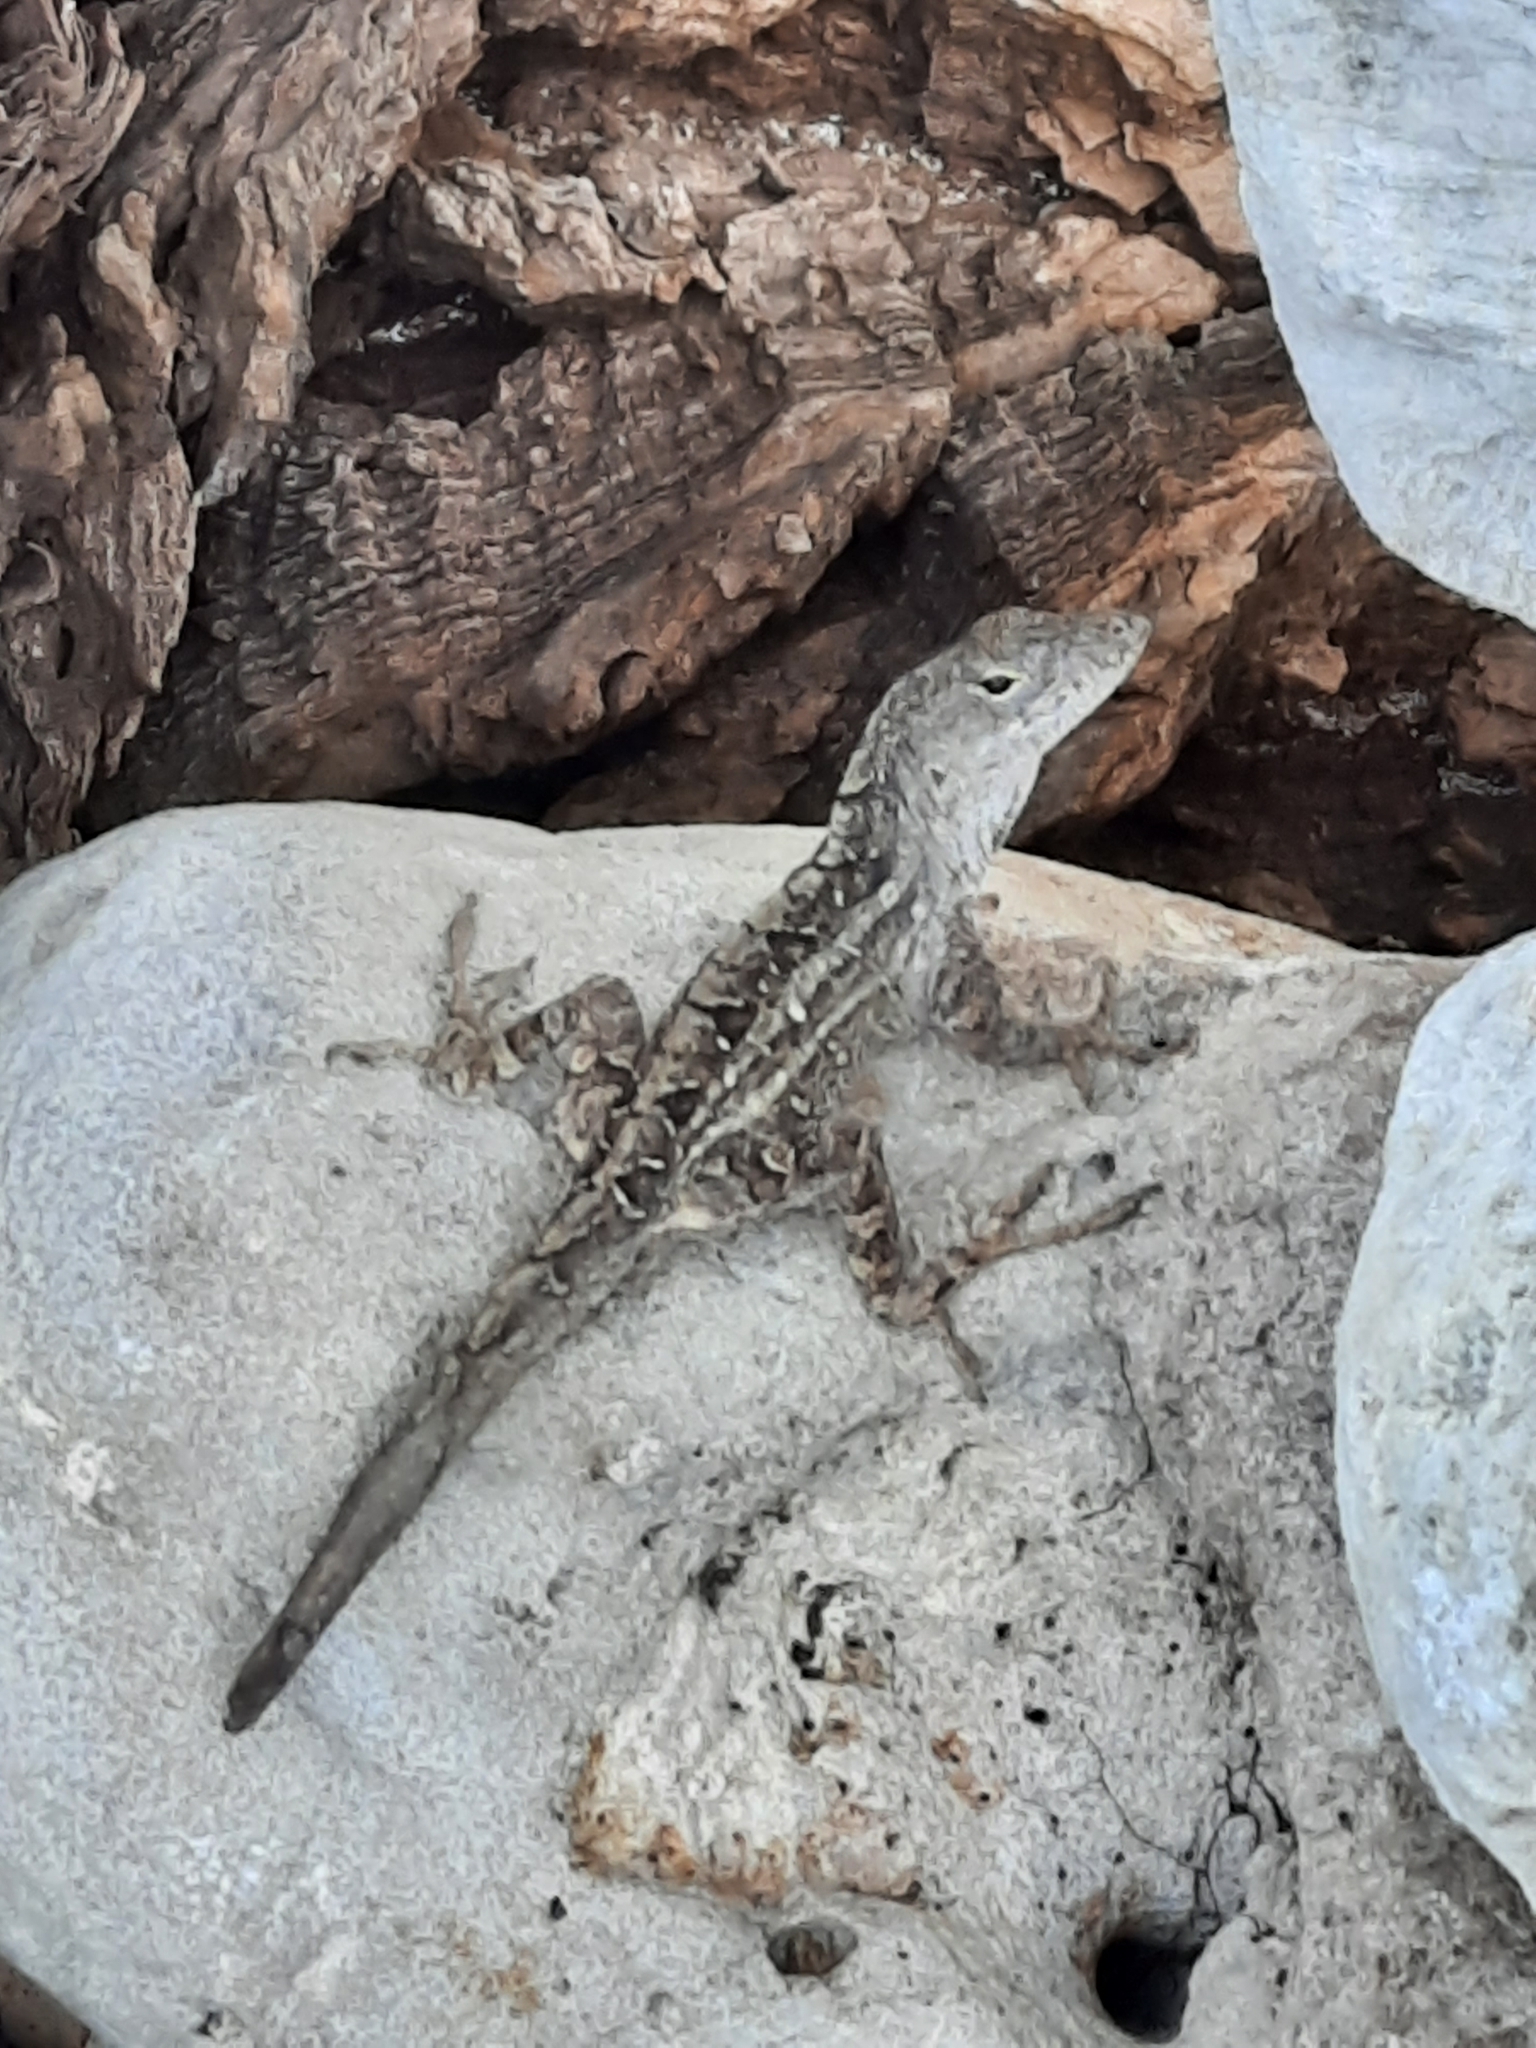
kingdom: Animalia
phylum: Chordata
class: Squamata
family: Dactyloidae
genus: Anolis
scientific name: Anolis sagrei
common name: Brown anole
